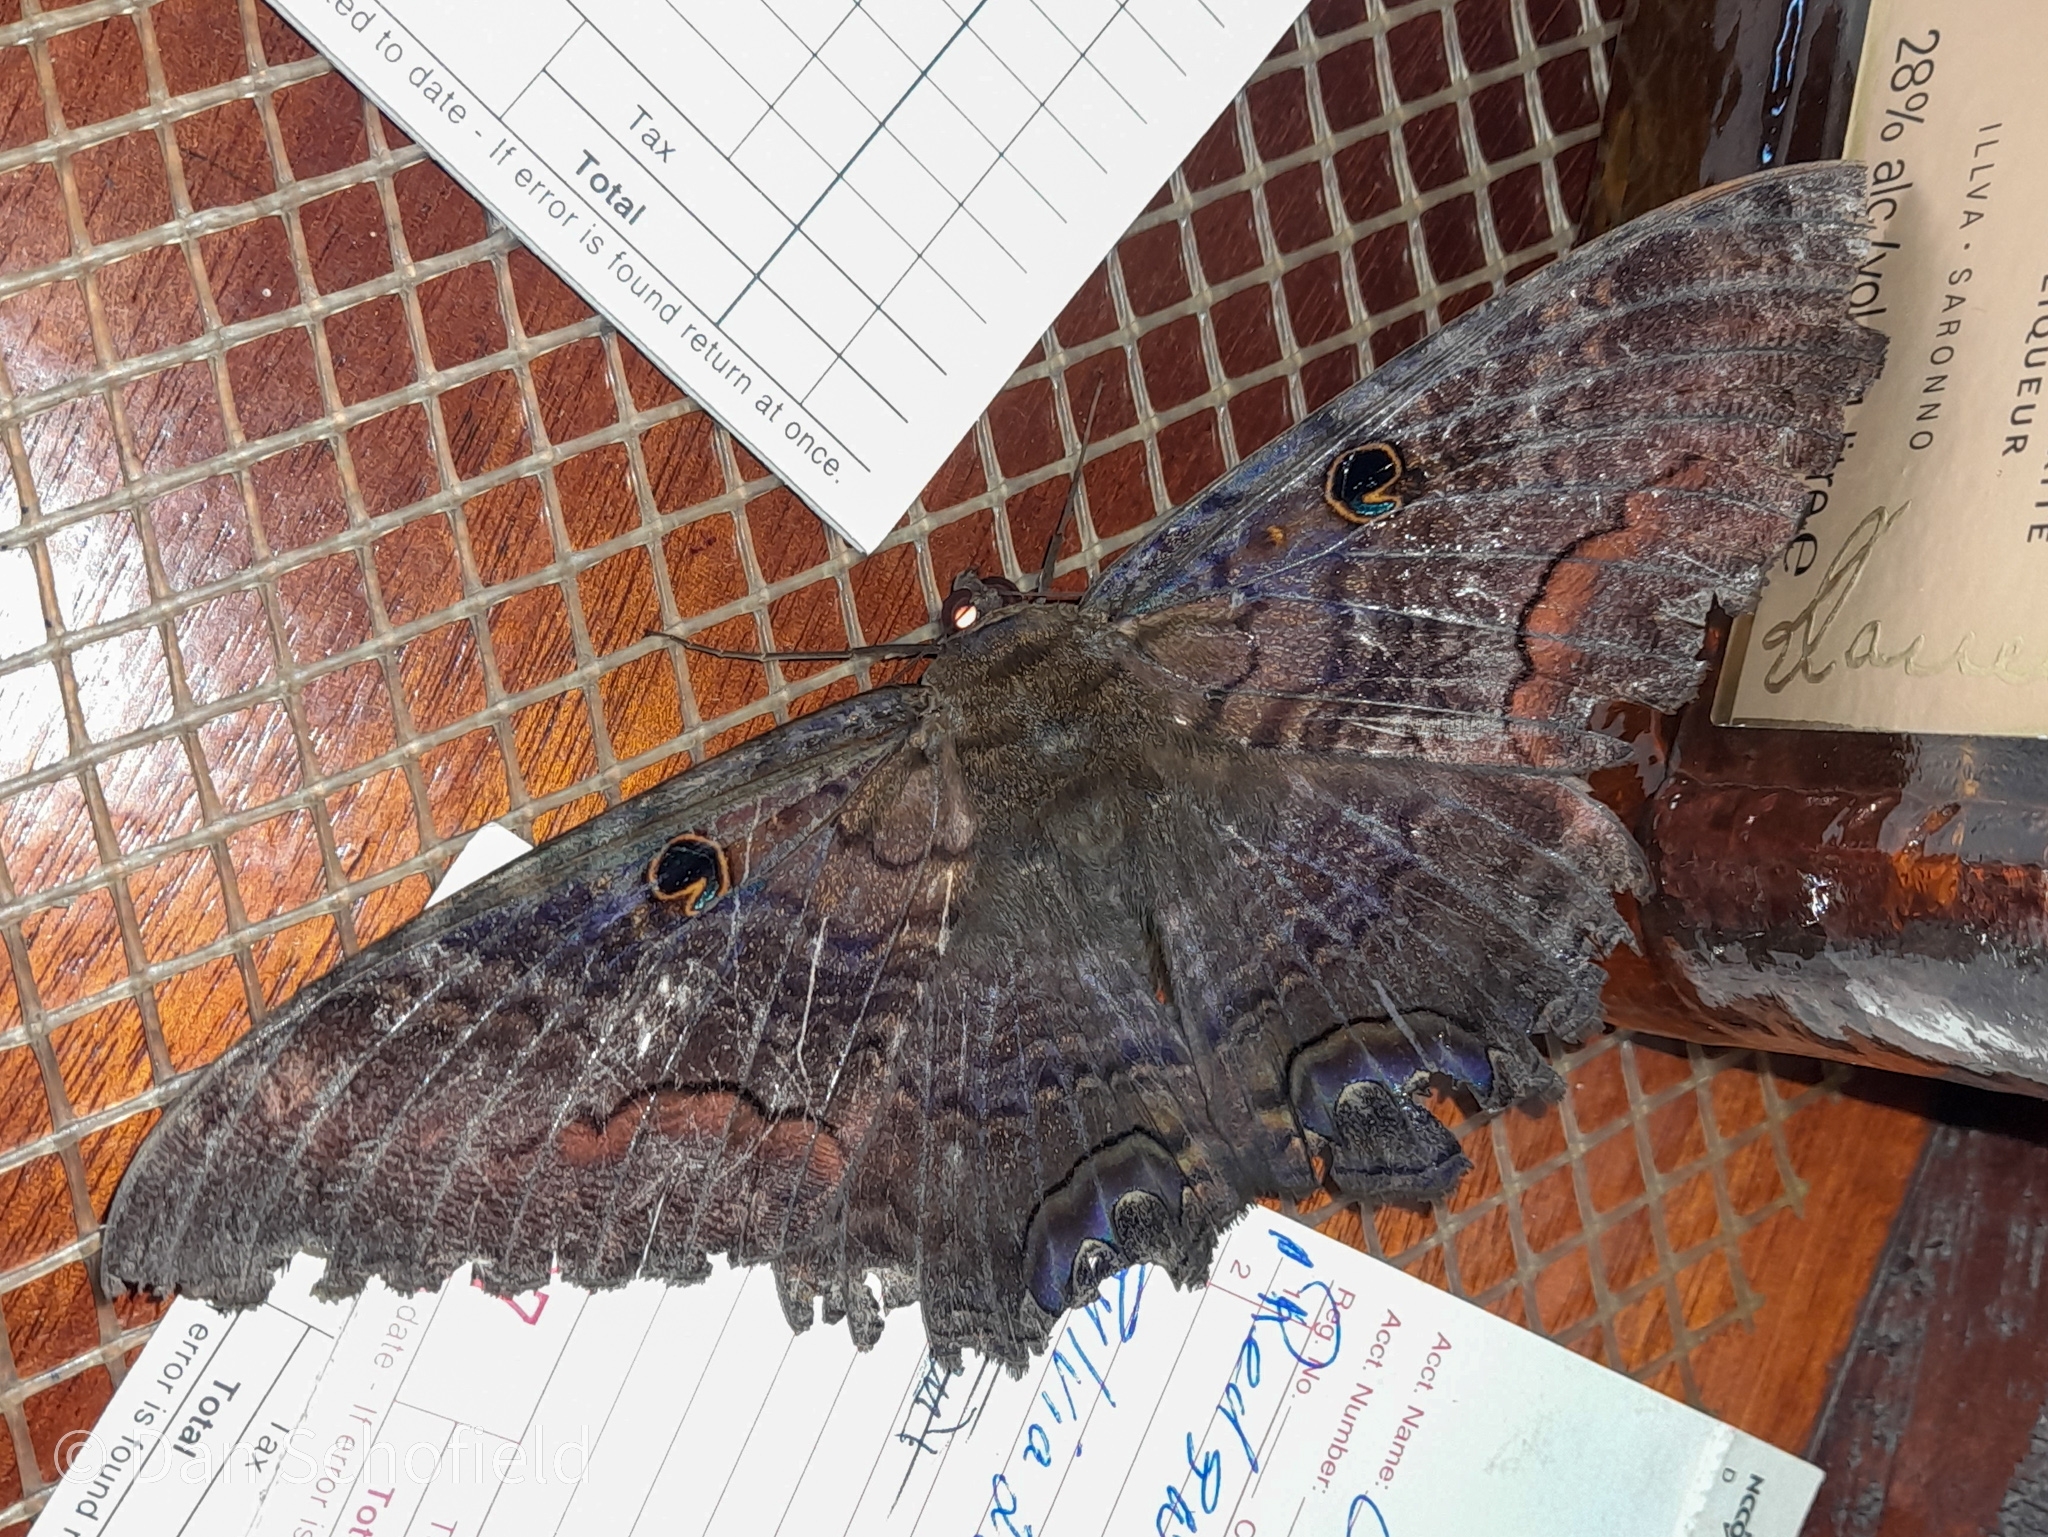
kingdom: Animalia
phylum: Arthropoda
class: Insecta
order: Lepidoptera
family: Erebidae
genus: Ascalapha
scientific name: Ascalapha odorata
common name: Black witch
